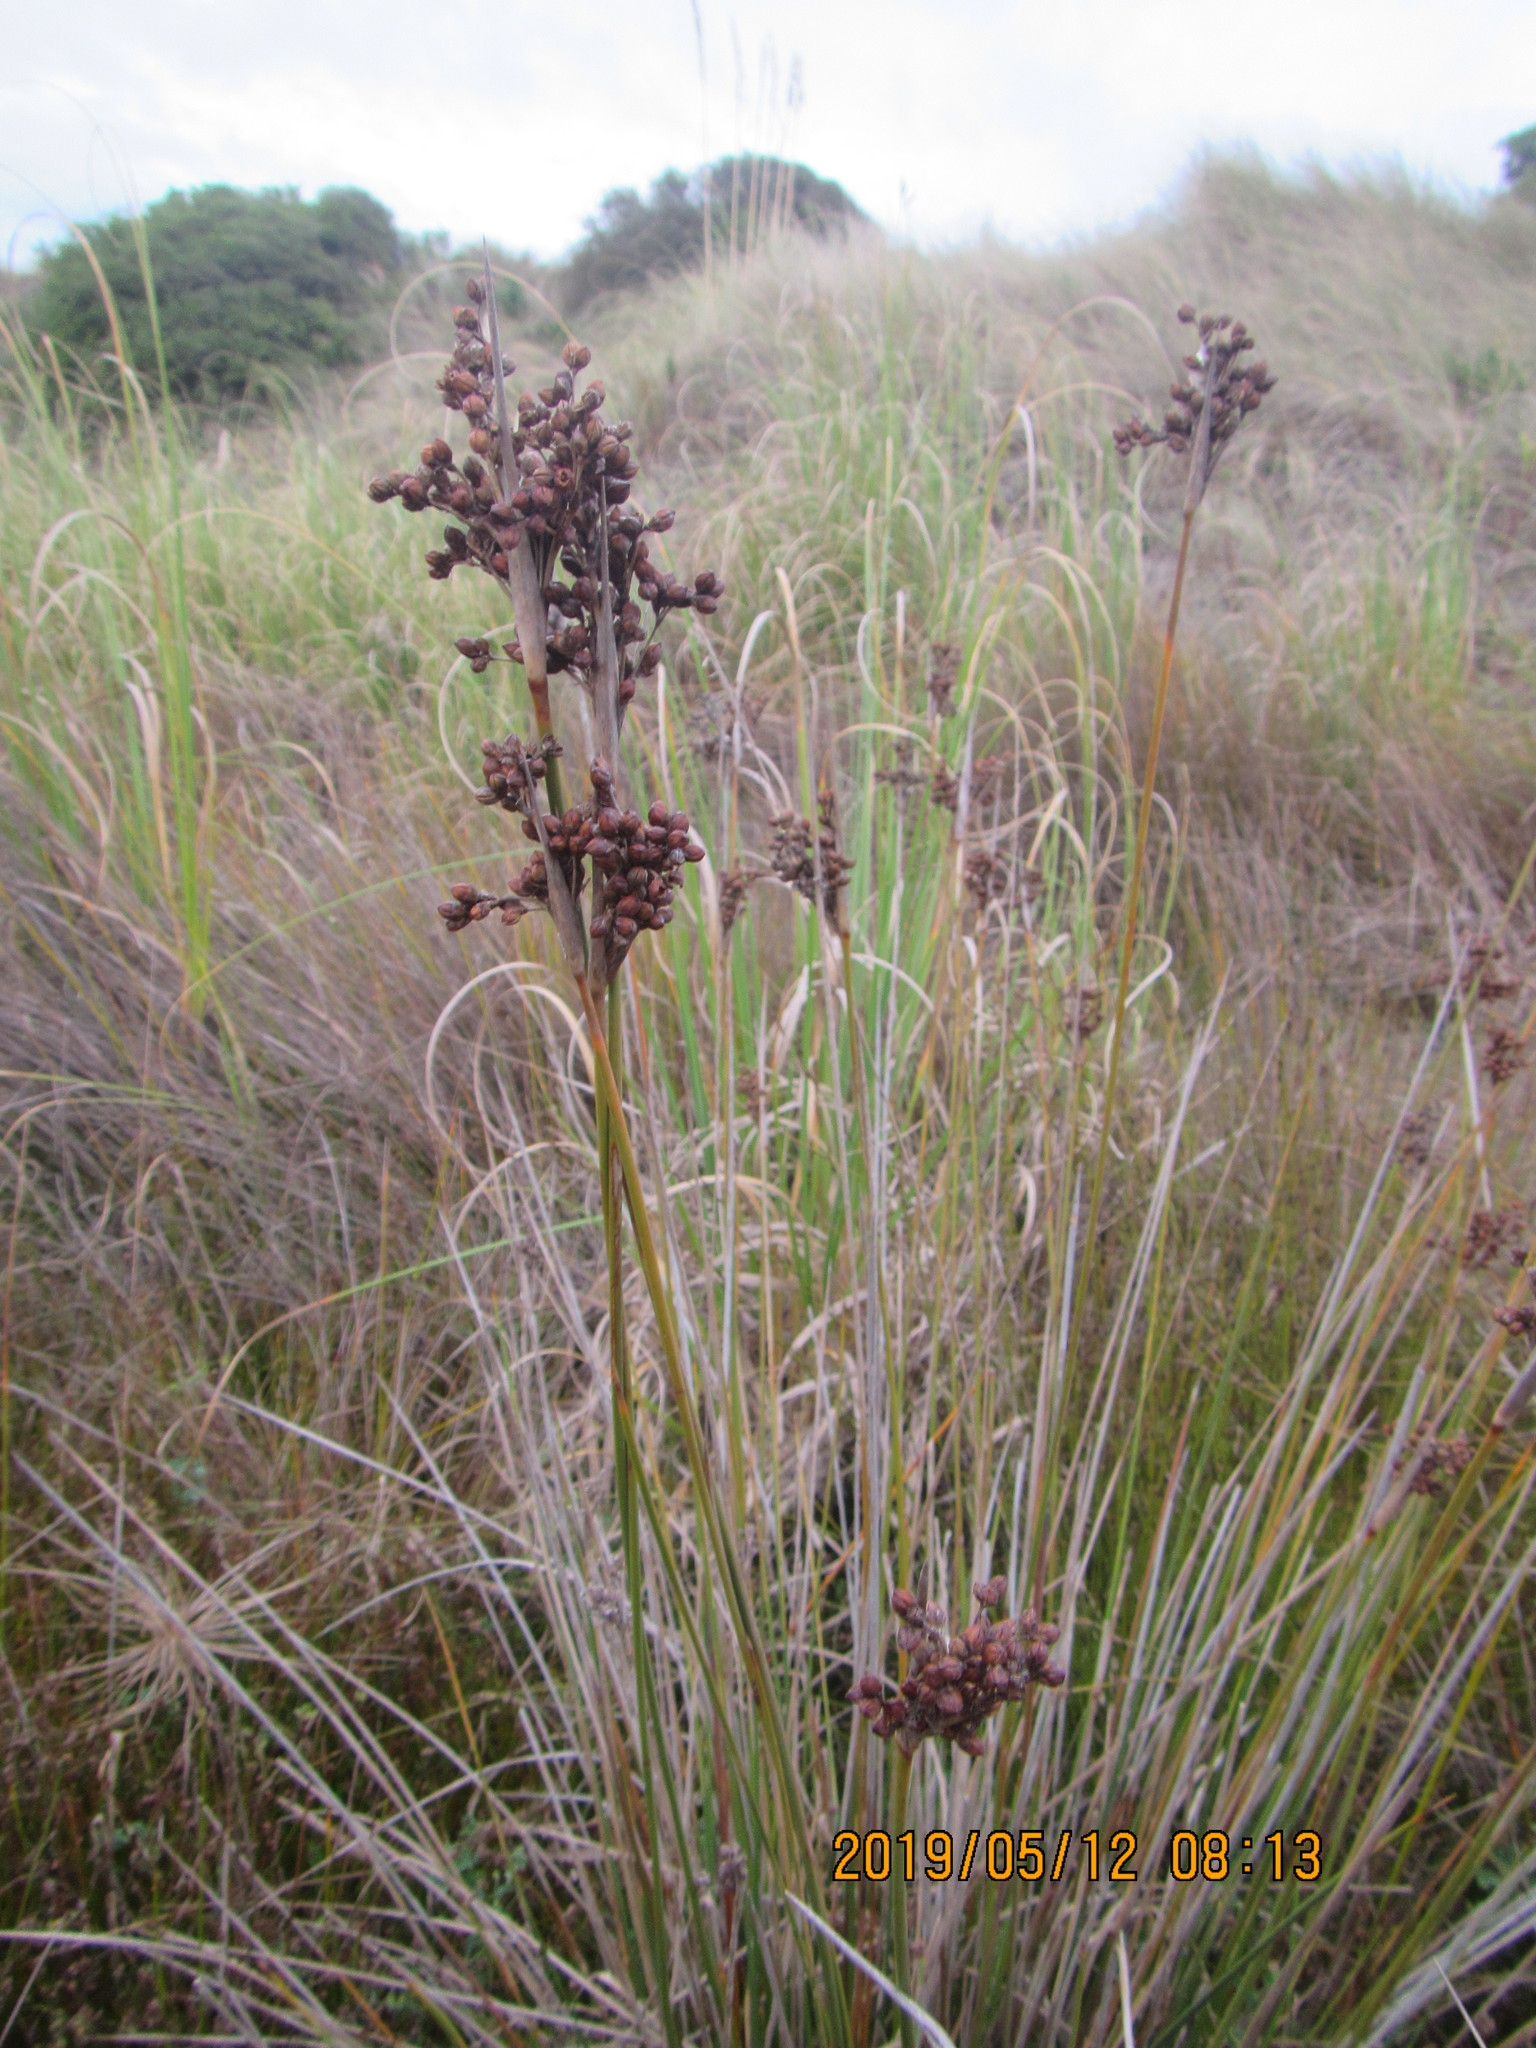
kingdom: Plantae
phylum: Tracheophyta
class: Liliopsida
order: Poales
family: Juncaceae
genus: Juncus
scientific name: Juncus acutus
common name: Sharp rush
